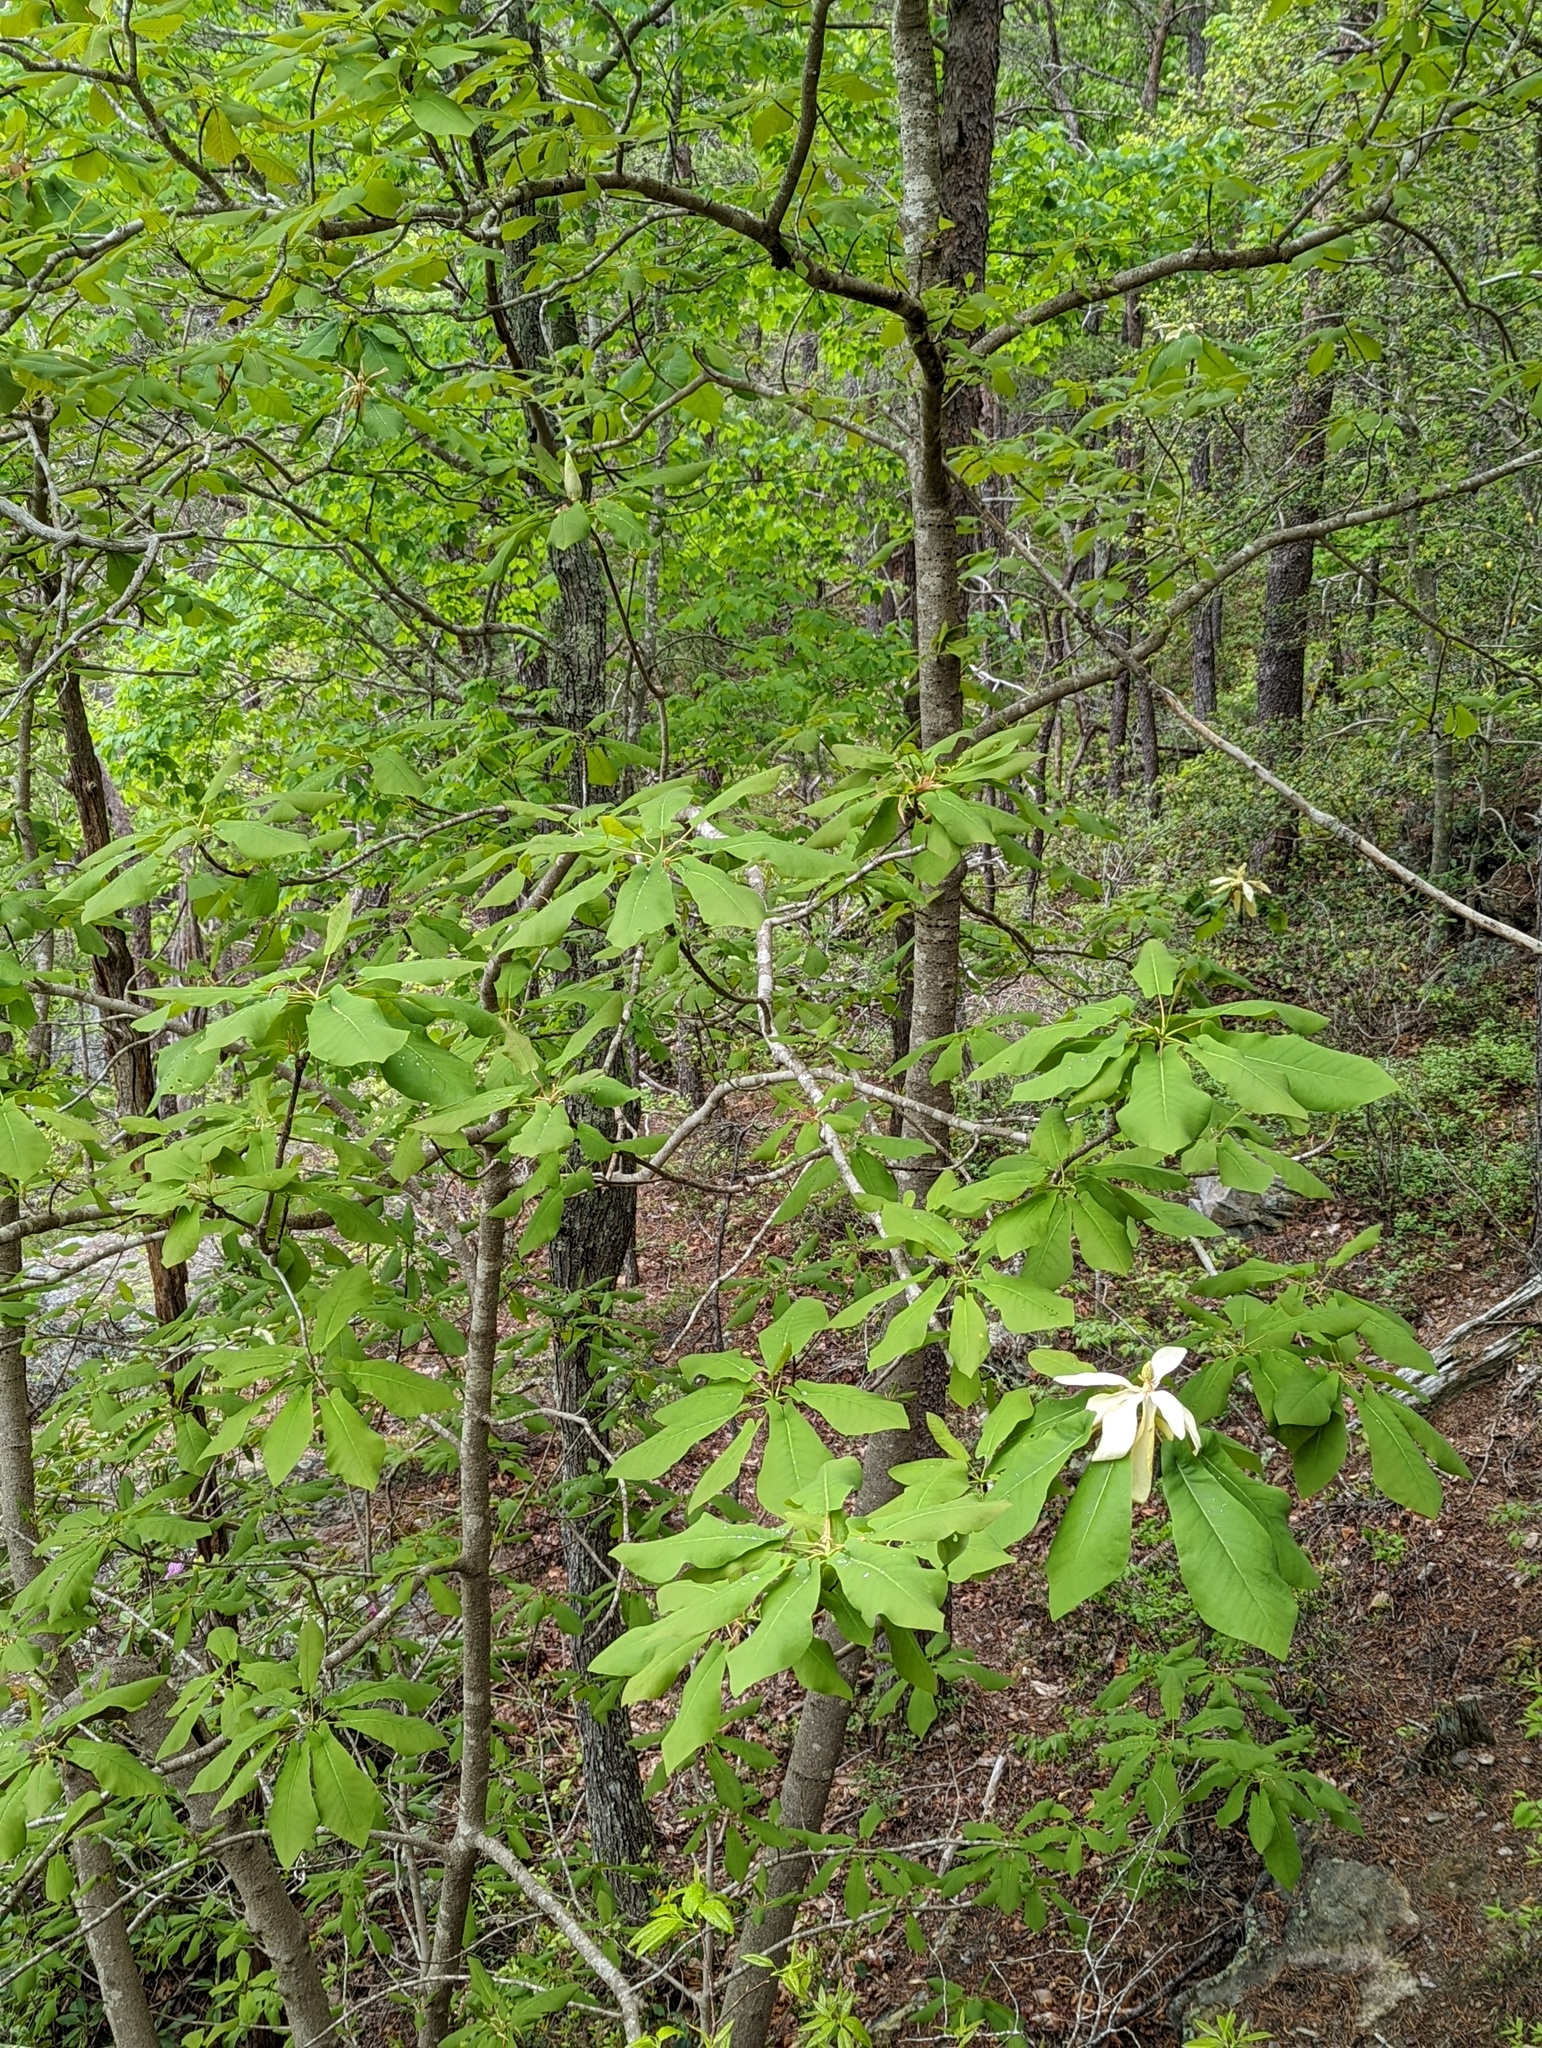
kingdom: Plantae
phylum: Tracheophyta
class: Magnoliopsida
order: Magnoliales
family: Magnoliaceae
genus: Magnolia
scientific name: Magnolia fraseri
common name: Fraser's magnolia
